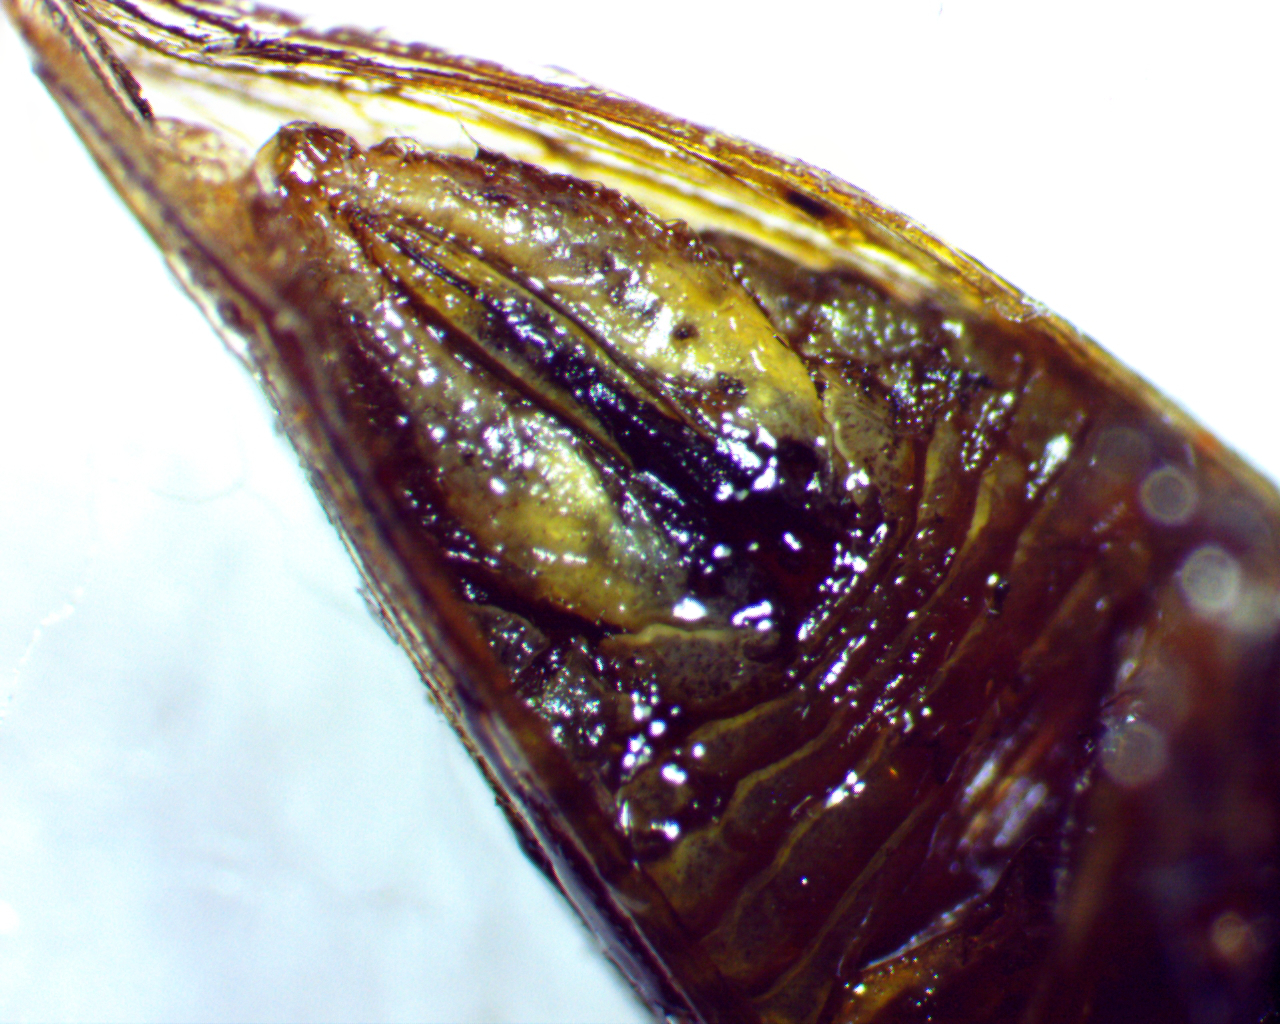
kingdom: Animalia
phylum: Arthropoda
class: Insecta
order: Hemiptera
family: Membracidae
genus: Platycotis
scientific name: Platycotis vittatus
